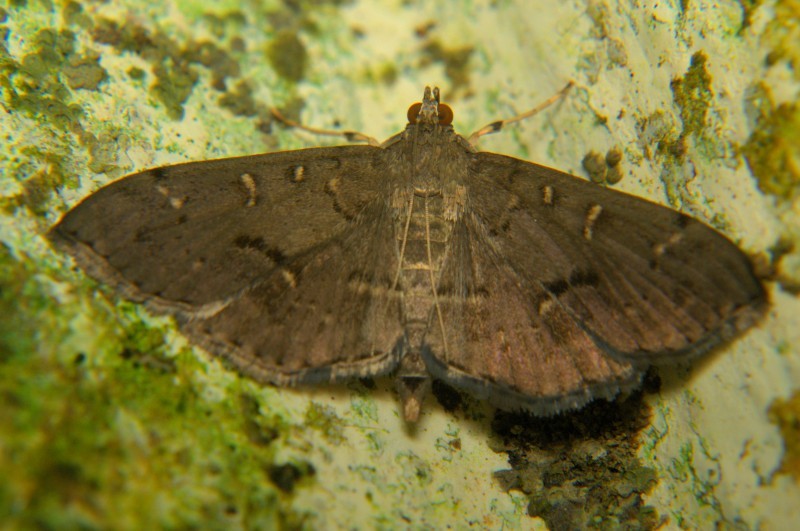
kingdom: Animalia
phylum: Arthropoda
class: Insecta
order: Lepidoptera
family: Crambidae
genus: Syllepte
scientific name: Syllepte
